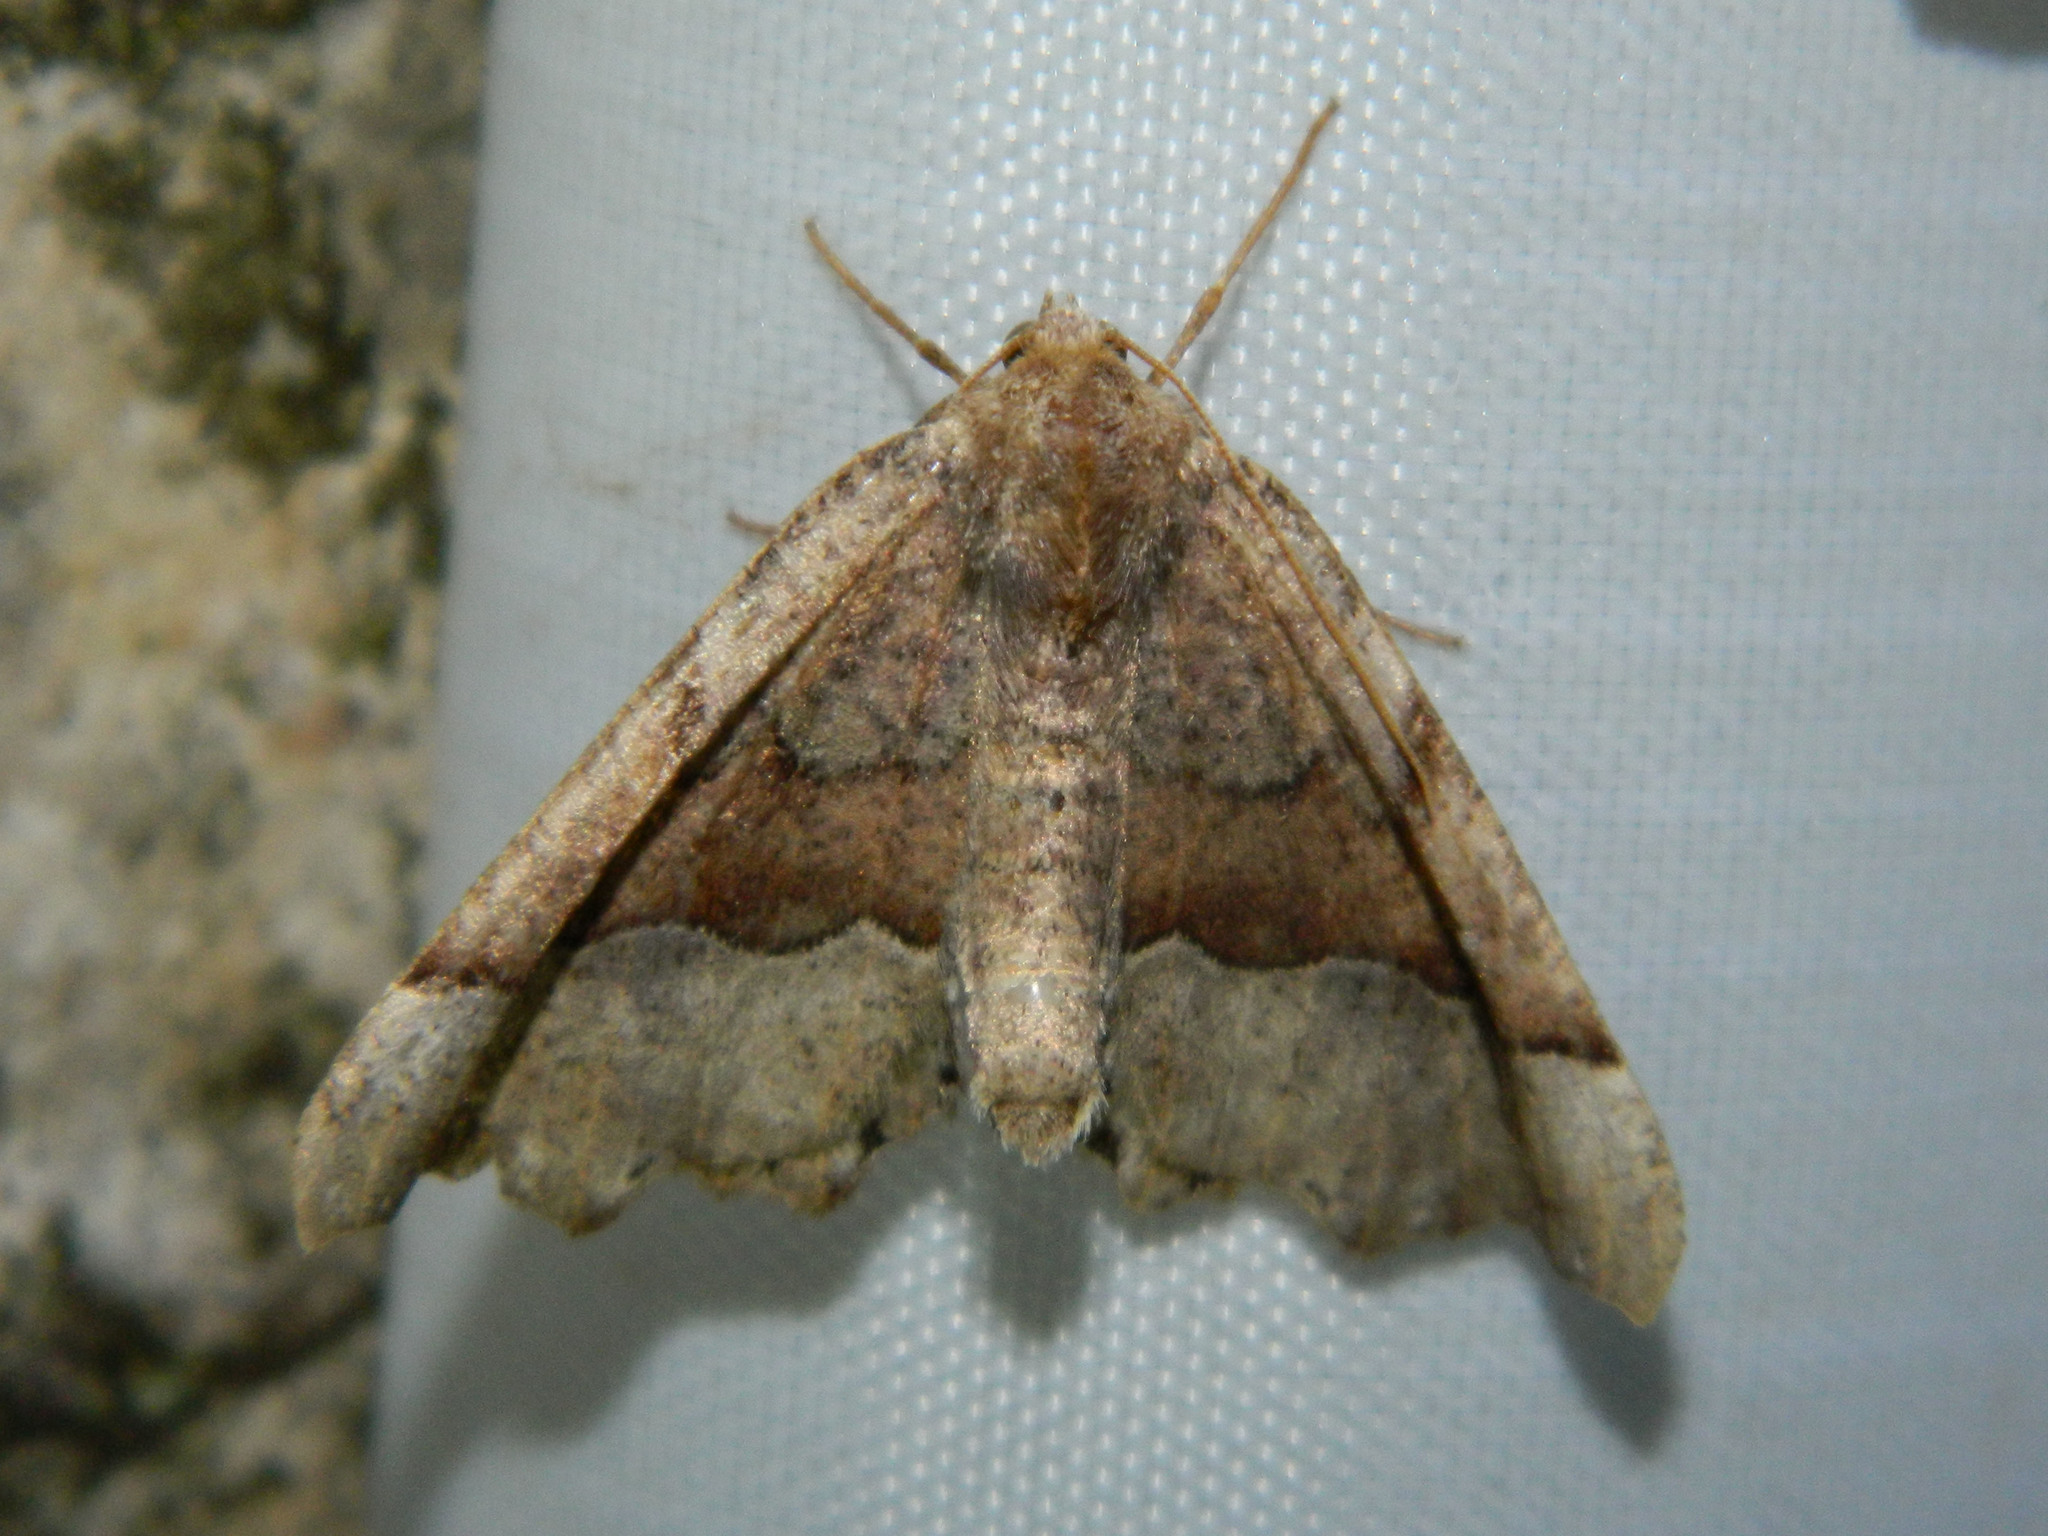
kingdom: Animalia
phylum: Arthropoda
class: Insecta
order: Lepidoptera
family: Geometridae
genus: Pero
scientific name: Pero morrisonaria
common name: Morrison's pero
